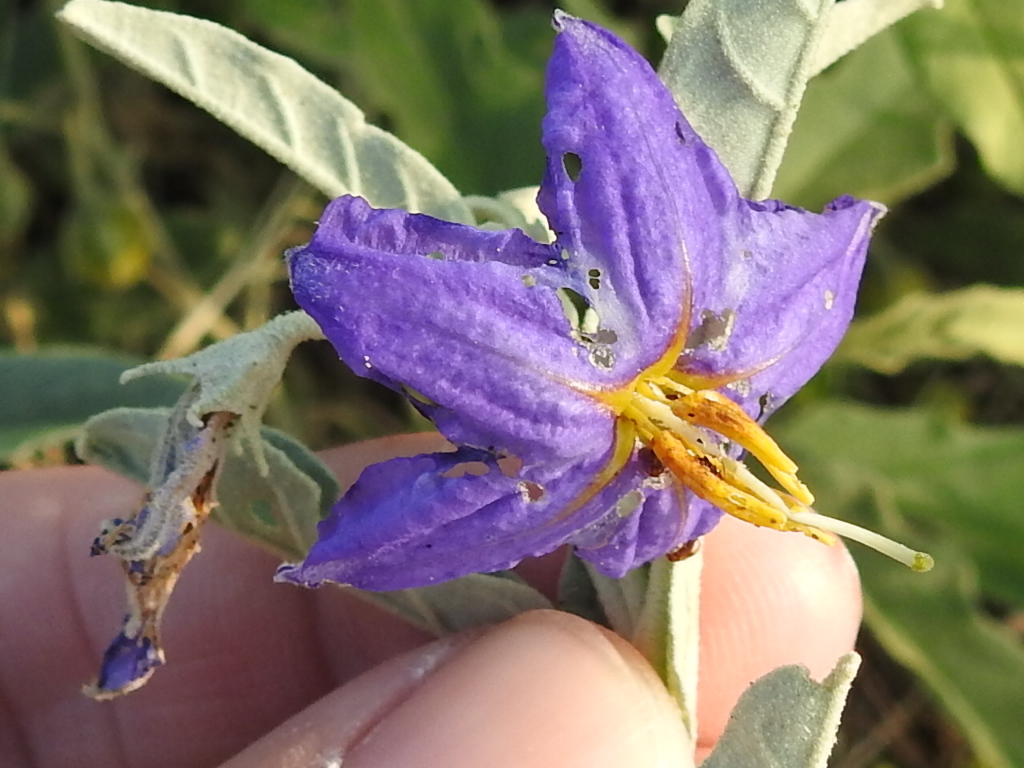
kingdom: Plantae
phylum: Tracheophyta
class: Magnoliopsida
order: Solanales
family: Solanaceae
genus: Solanum
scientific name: Solanum elaeagnifolium
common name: Silverleaf nightshade
